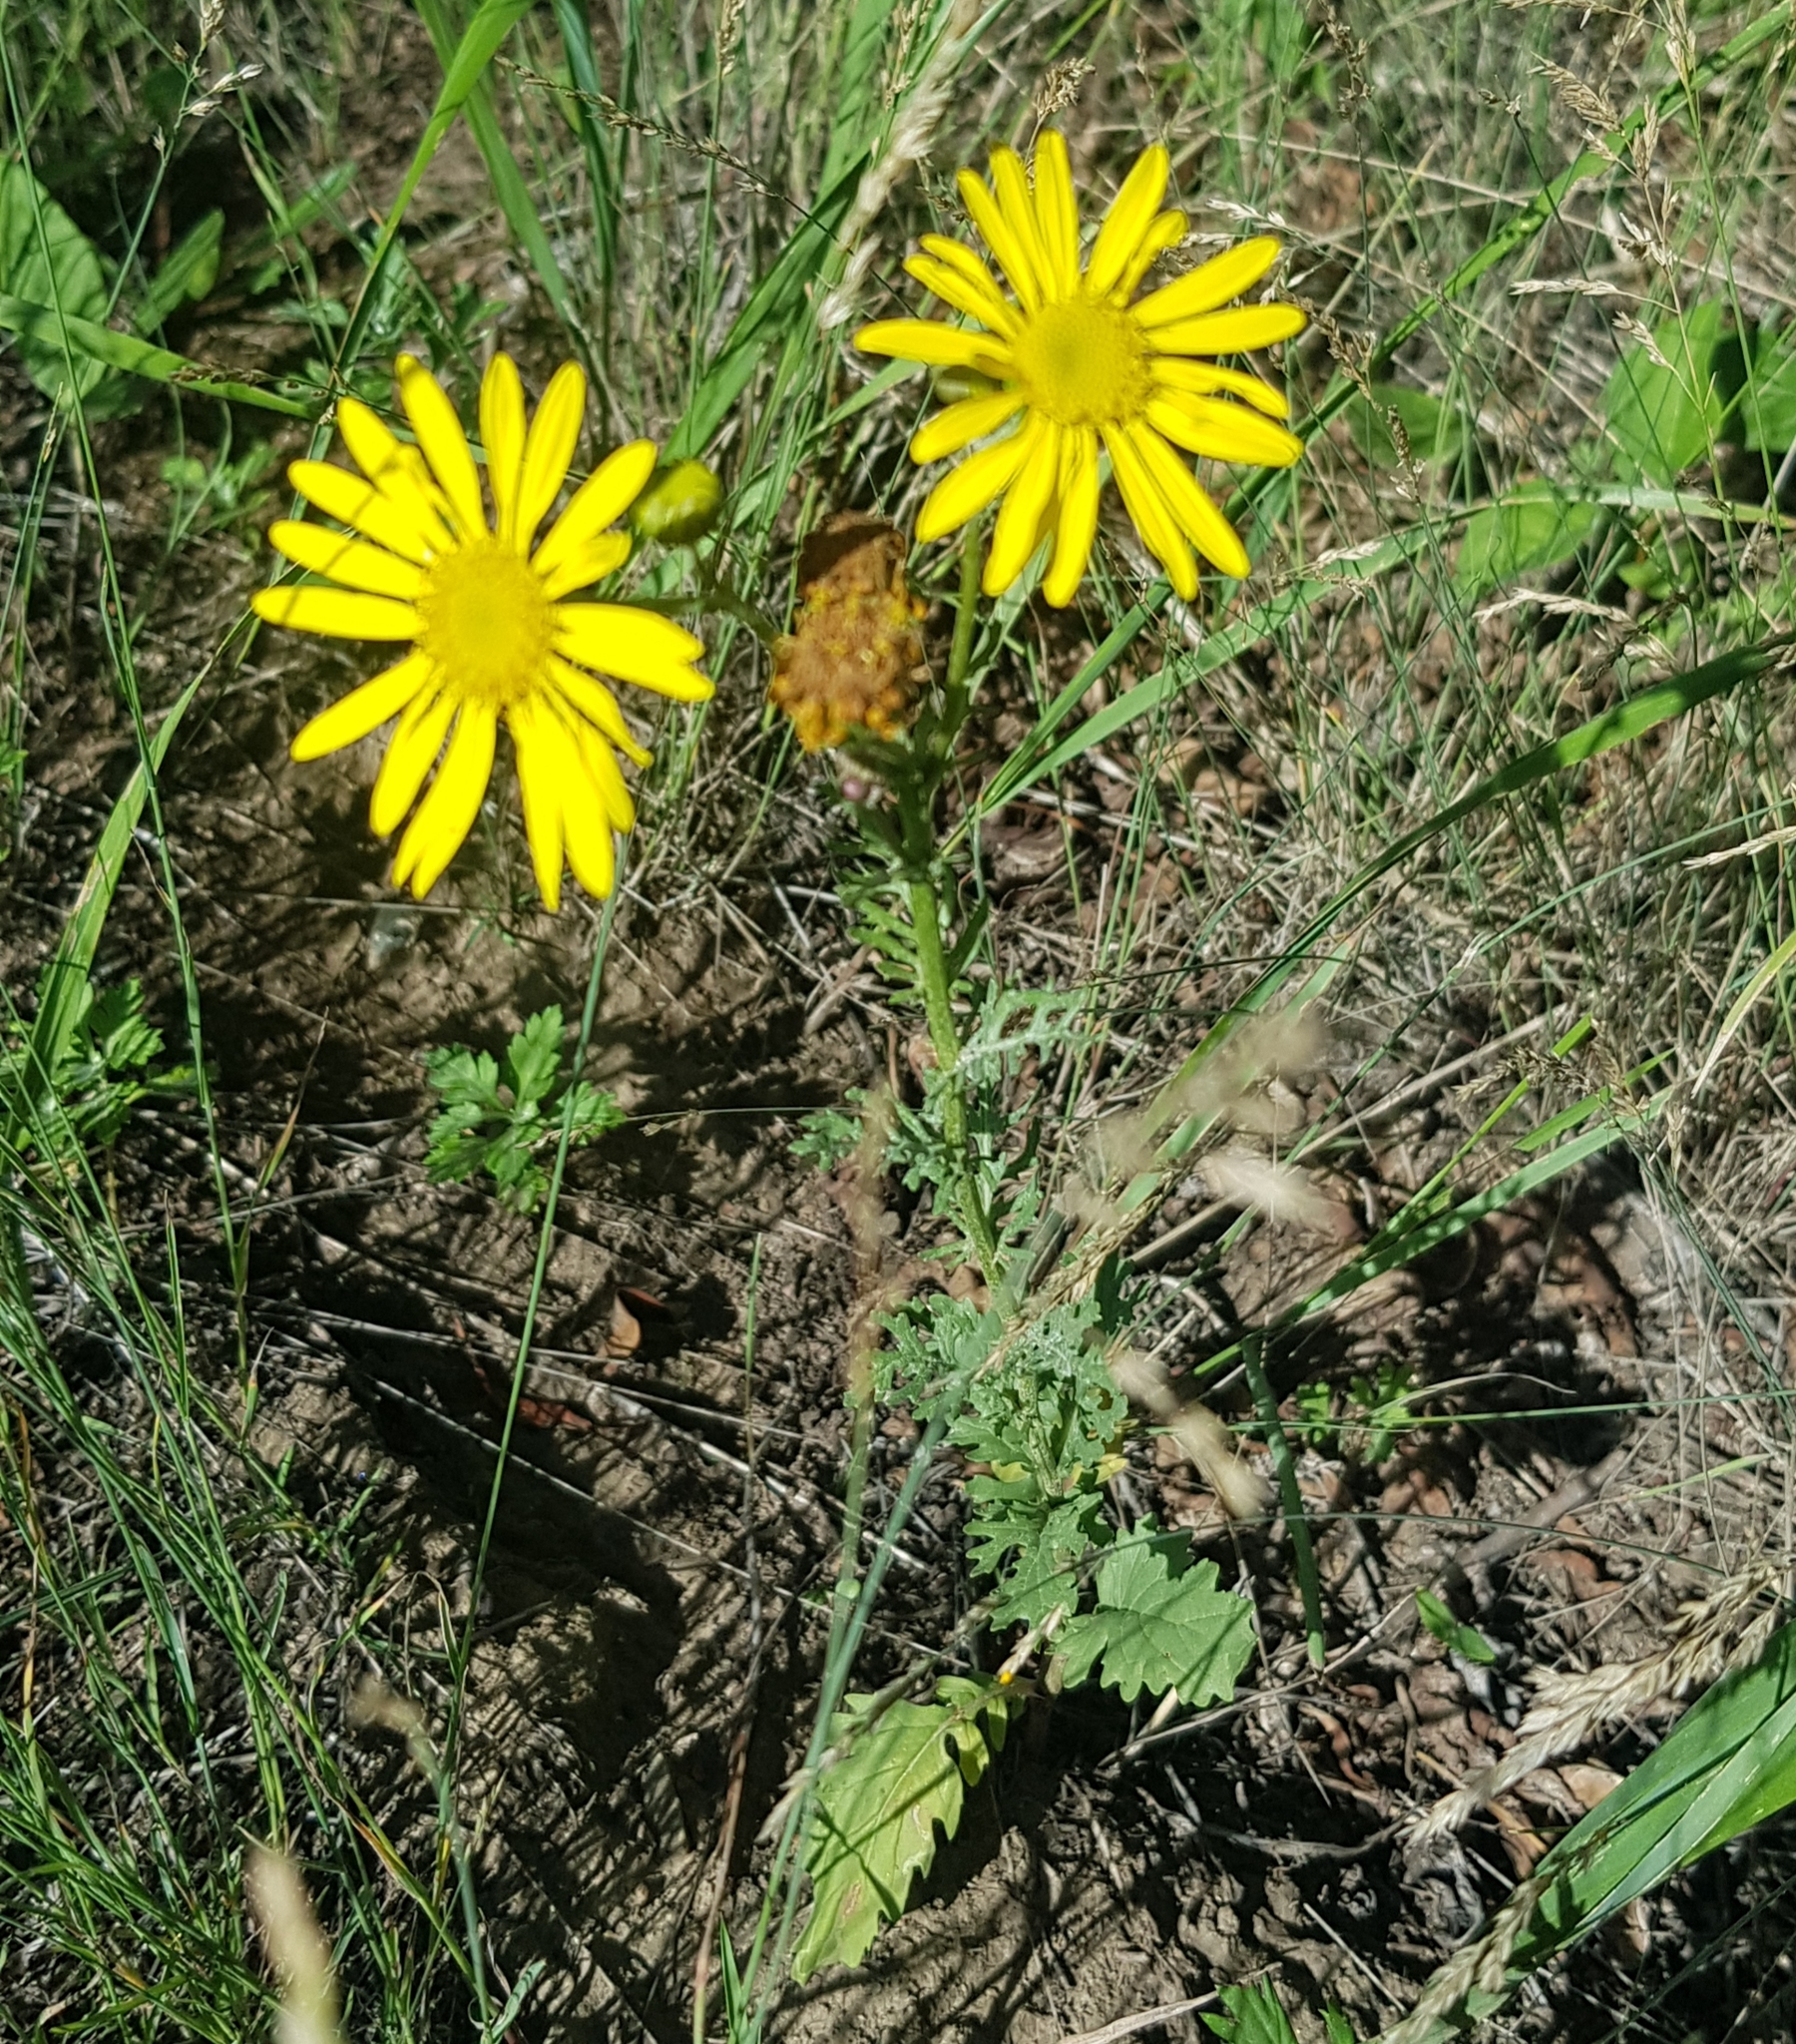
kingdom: Plantae
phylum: Tracheophyta
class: Magnoliopsida
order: Asterales
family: Asteraceae
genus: Jacobaea
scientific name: Jacobaea erucifolia
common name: Hoary ragwort
